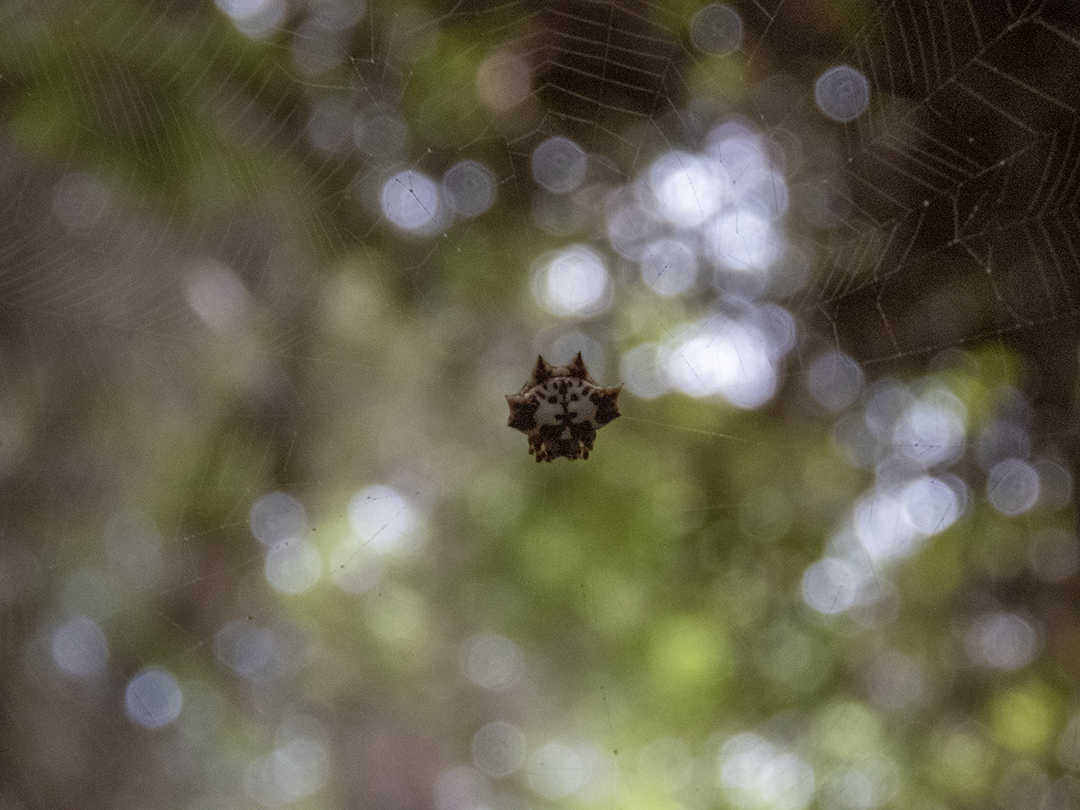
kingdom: Animalia
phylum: Arthropoda
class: Arachnida
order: Araneae
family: Araneidae
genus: Gasteracantha
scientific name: Gasteracantha kuhli
